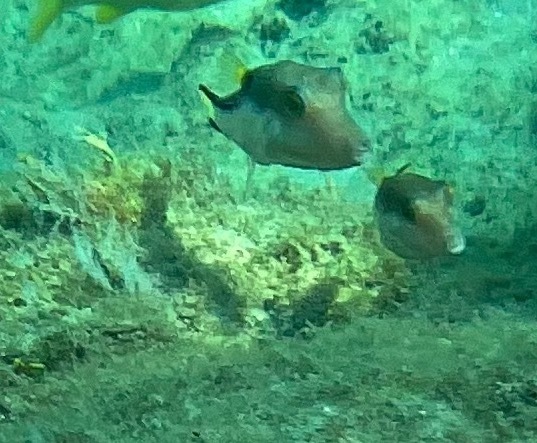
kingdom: Animalia
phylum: Chordata
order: Tetraodontiformes
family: Tetraodontidae
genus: Canthigaster
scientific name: Canthigaster rostrata
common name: Caribbean sharpnose-puffer
